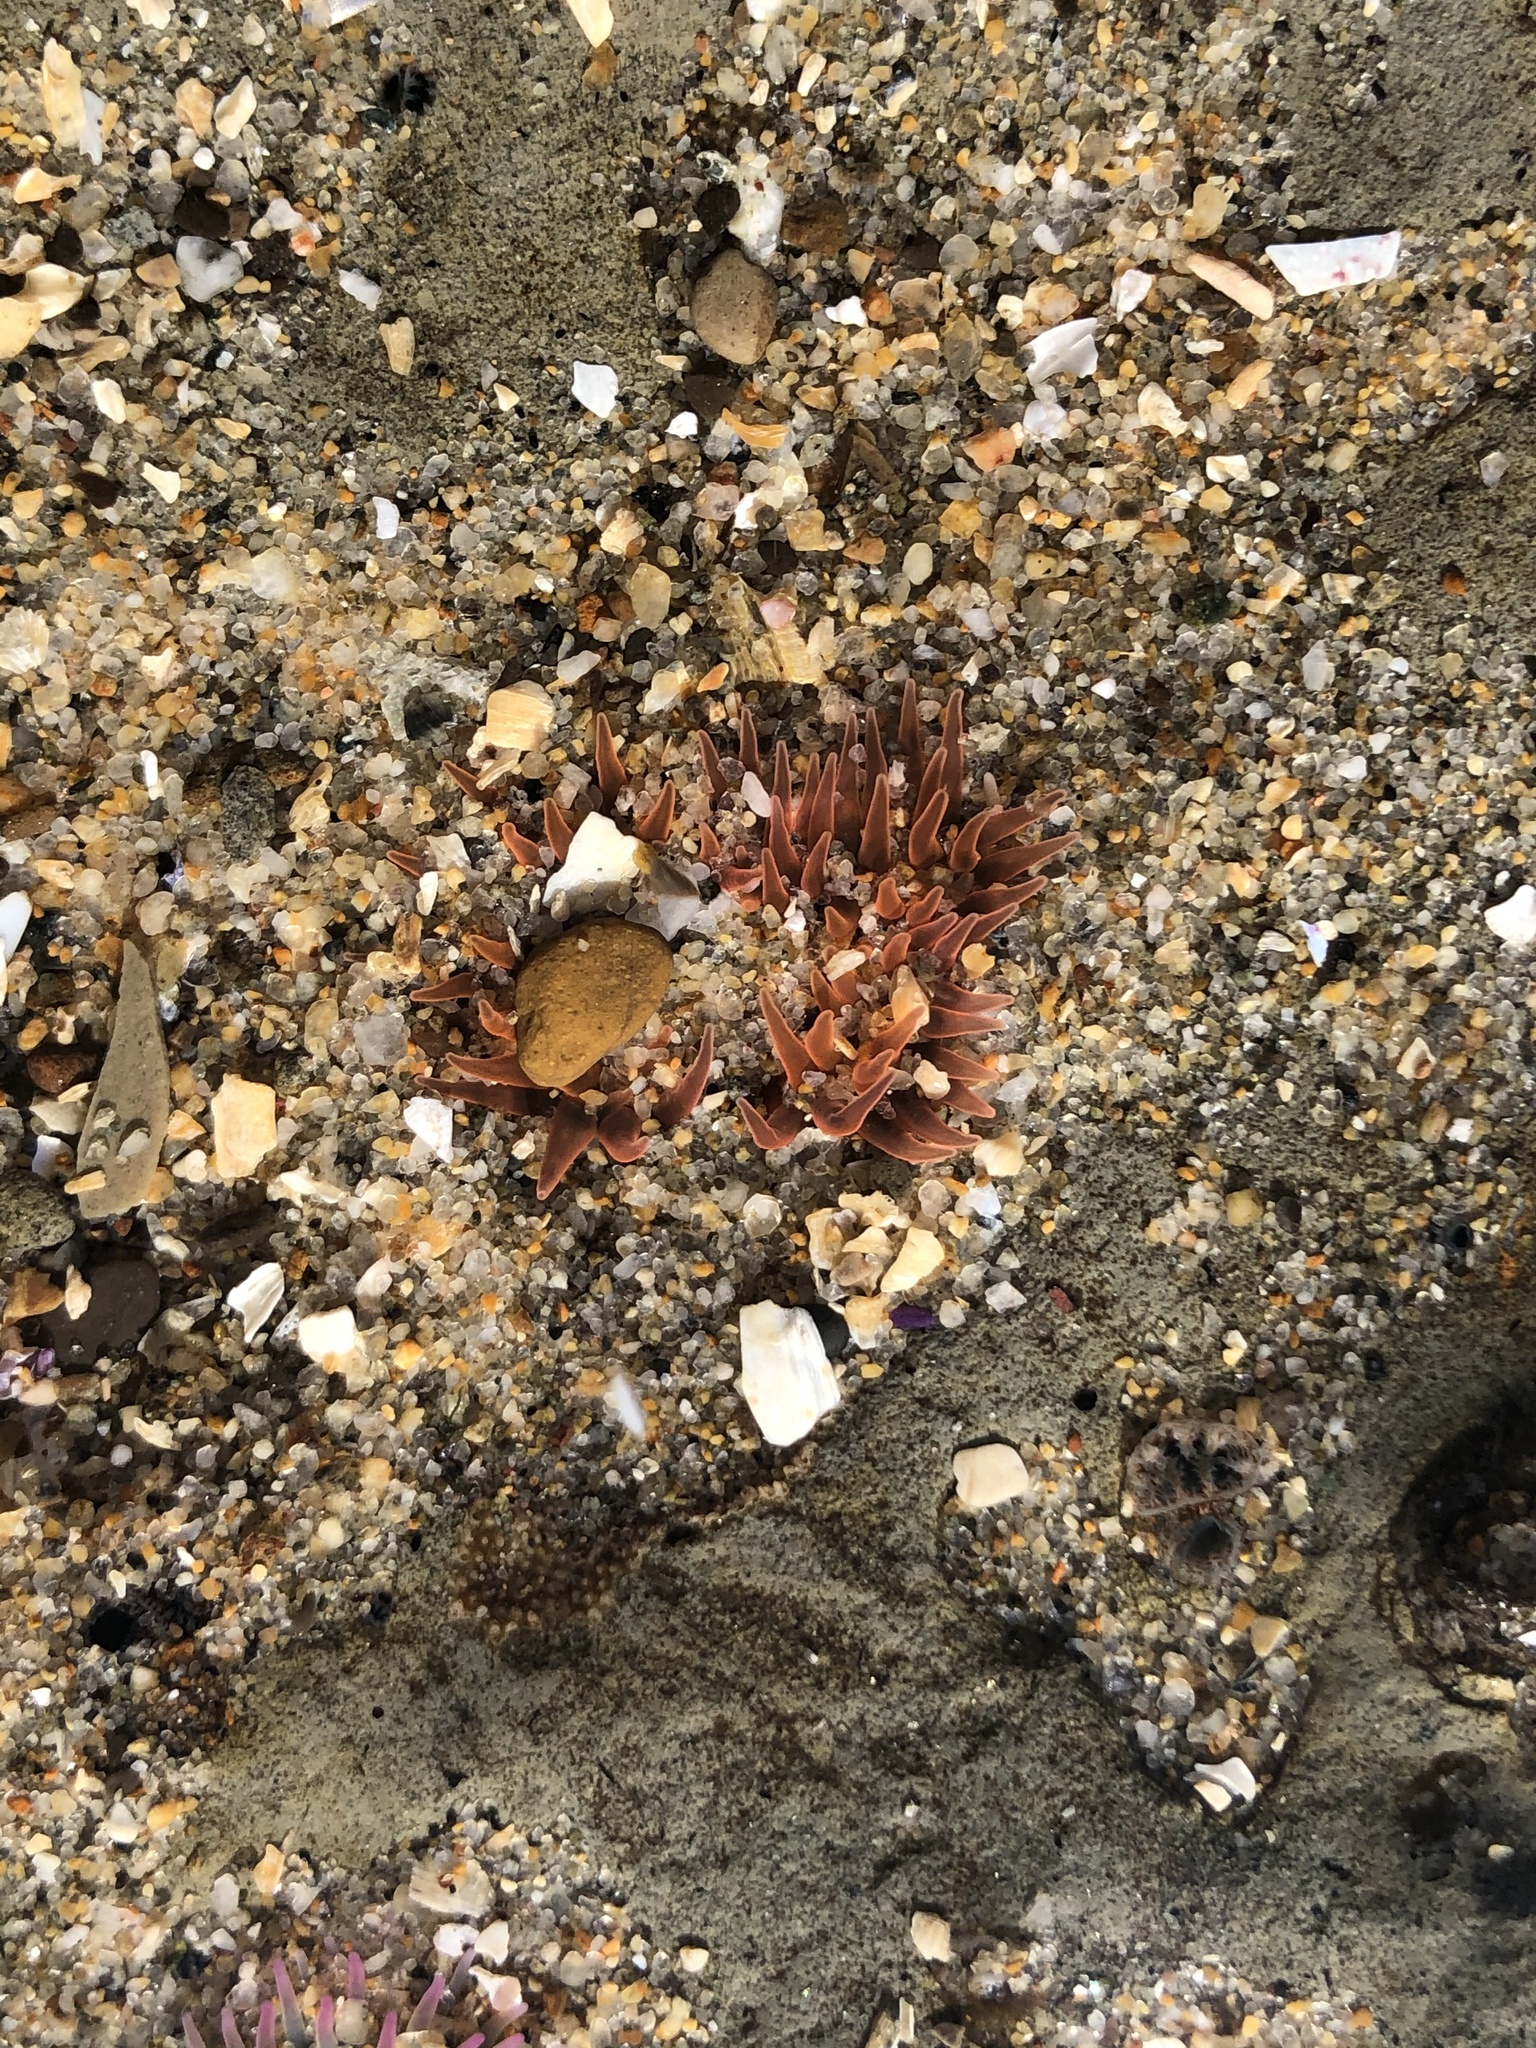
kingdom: Animalia
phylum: Cnidaria
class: Anthozoa
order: Actiniaria
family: Actiniidae
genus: Anthopleura
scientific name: Anthopleura artemisia
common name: Buried sea anemone
